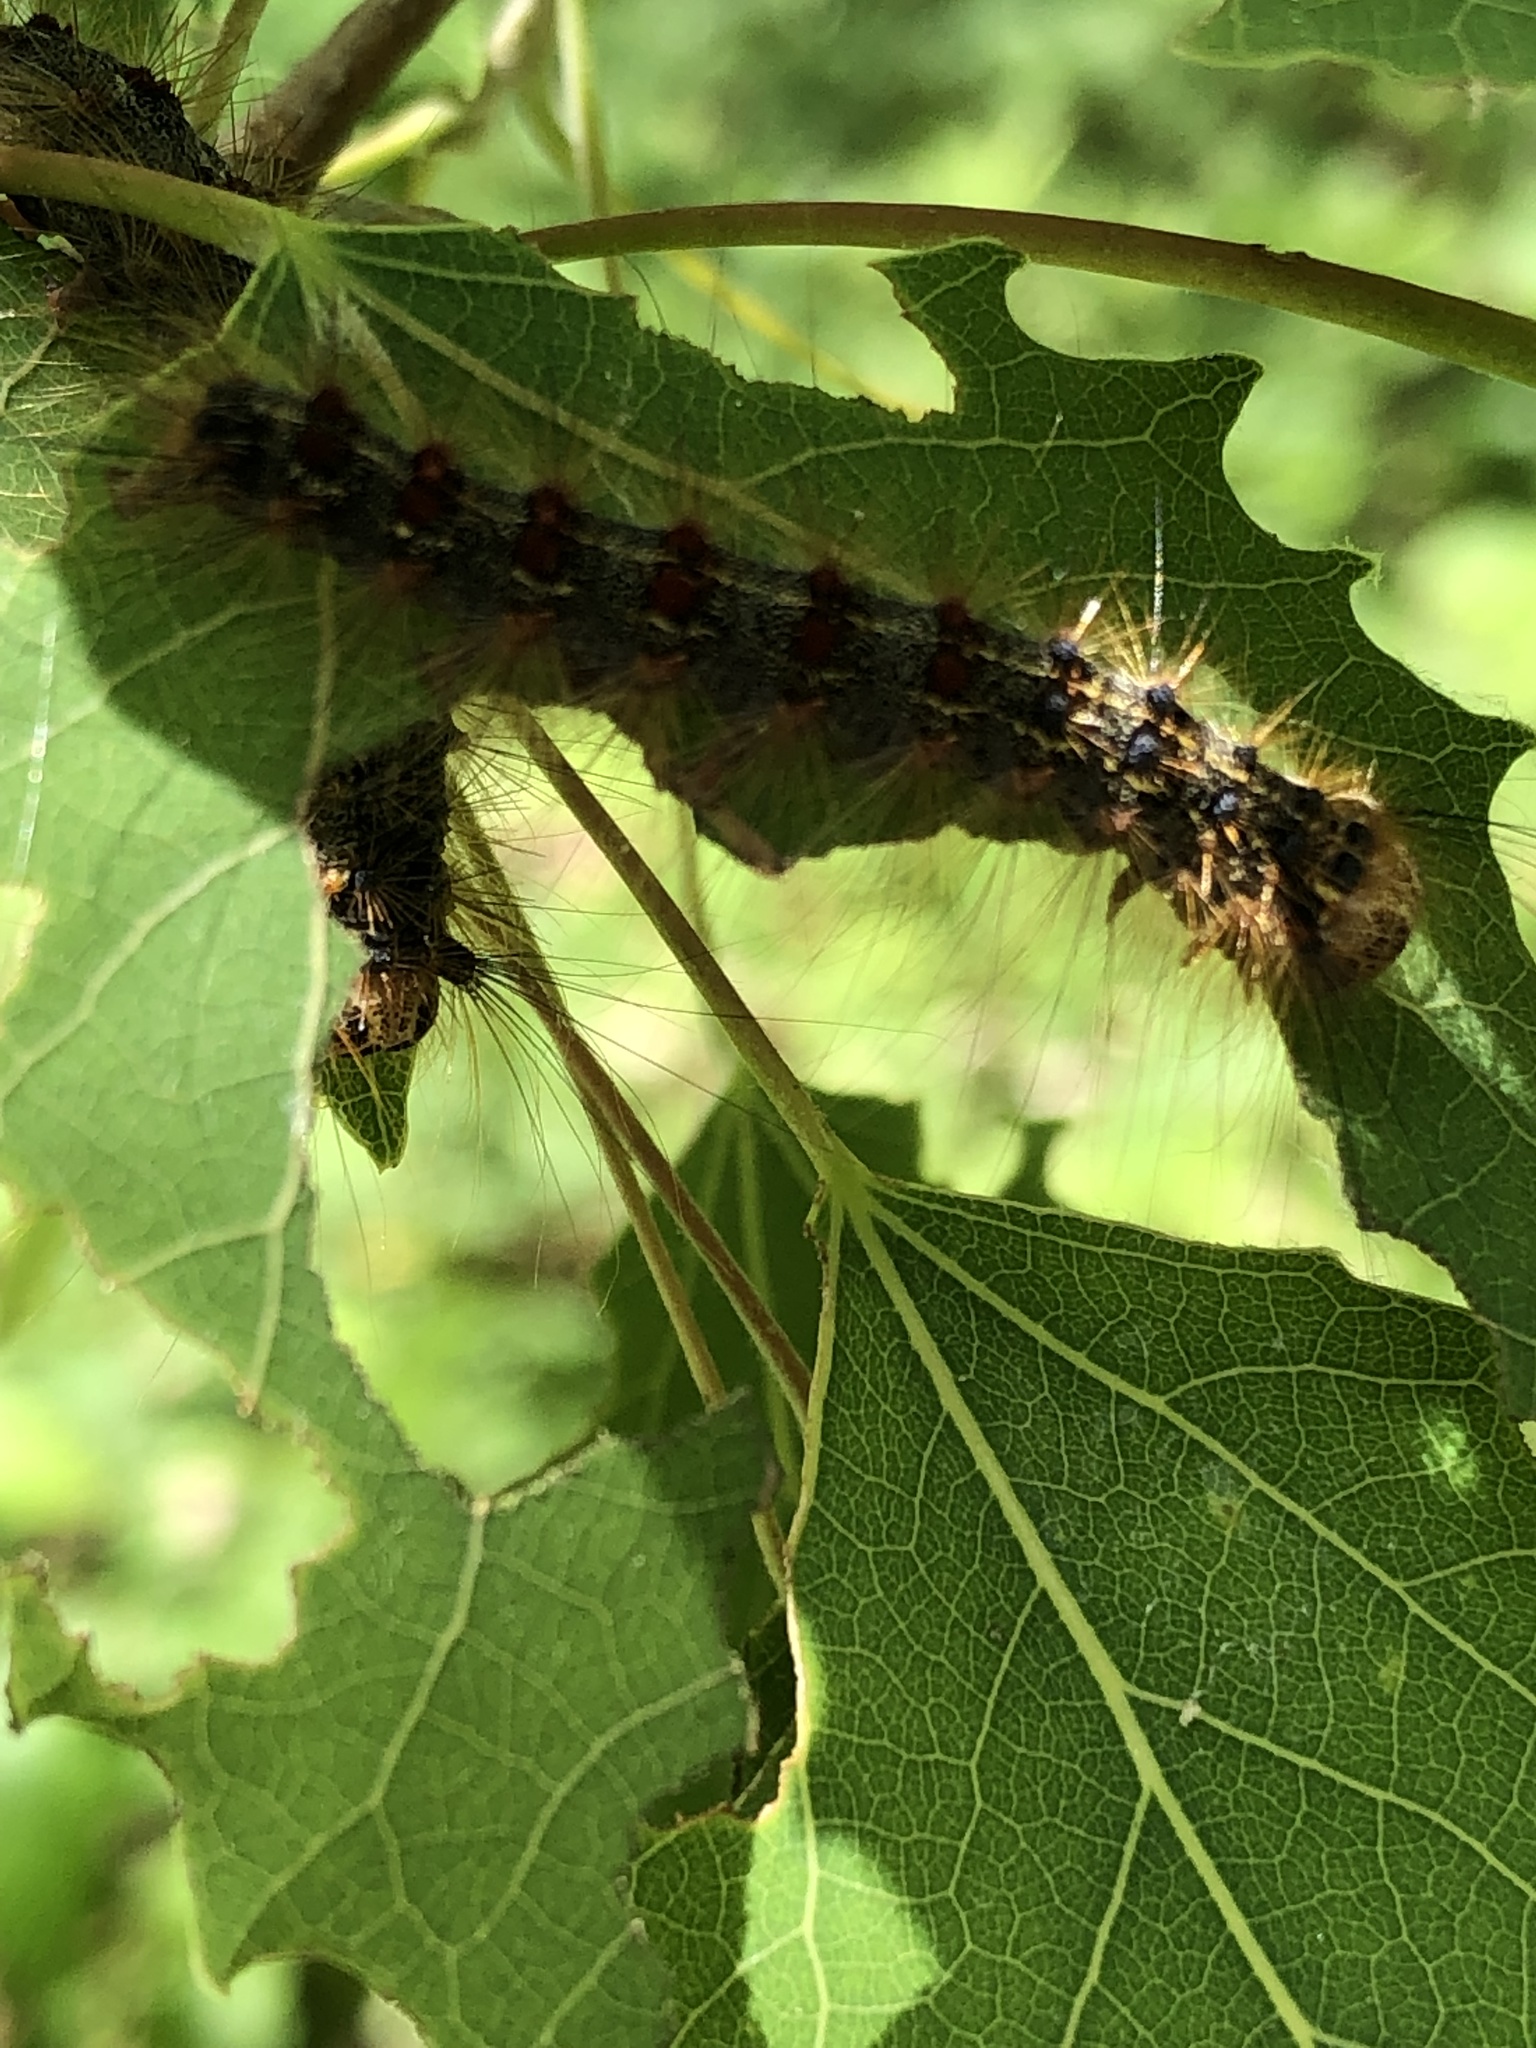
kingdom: Animalia
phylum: Arthropoda
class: Insecta
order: Lepidoptera
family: Erebidae
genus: Lymantria
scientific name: Lymantria dispar
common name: Gypsy moth
